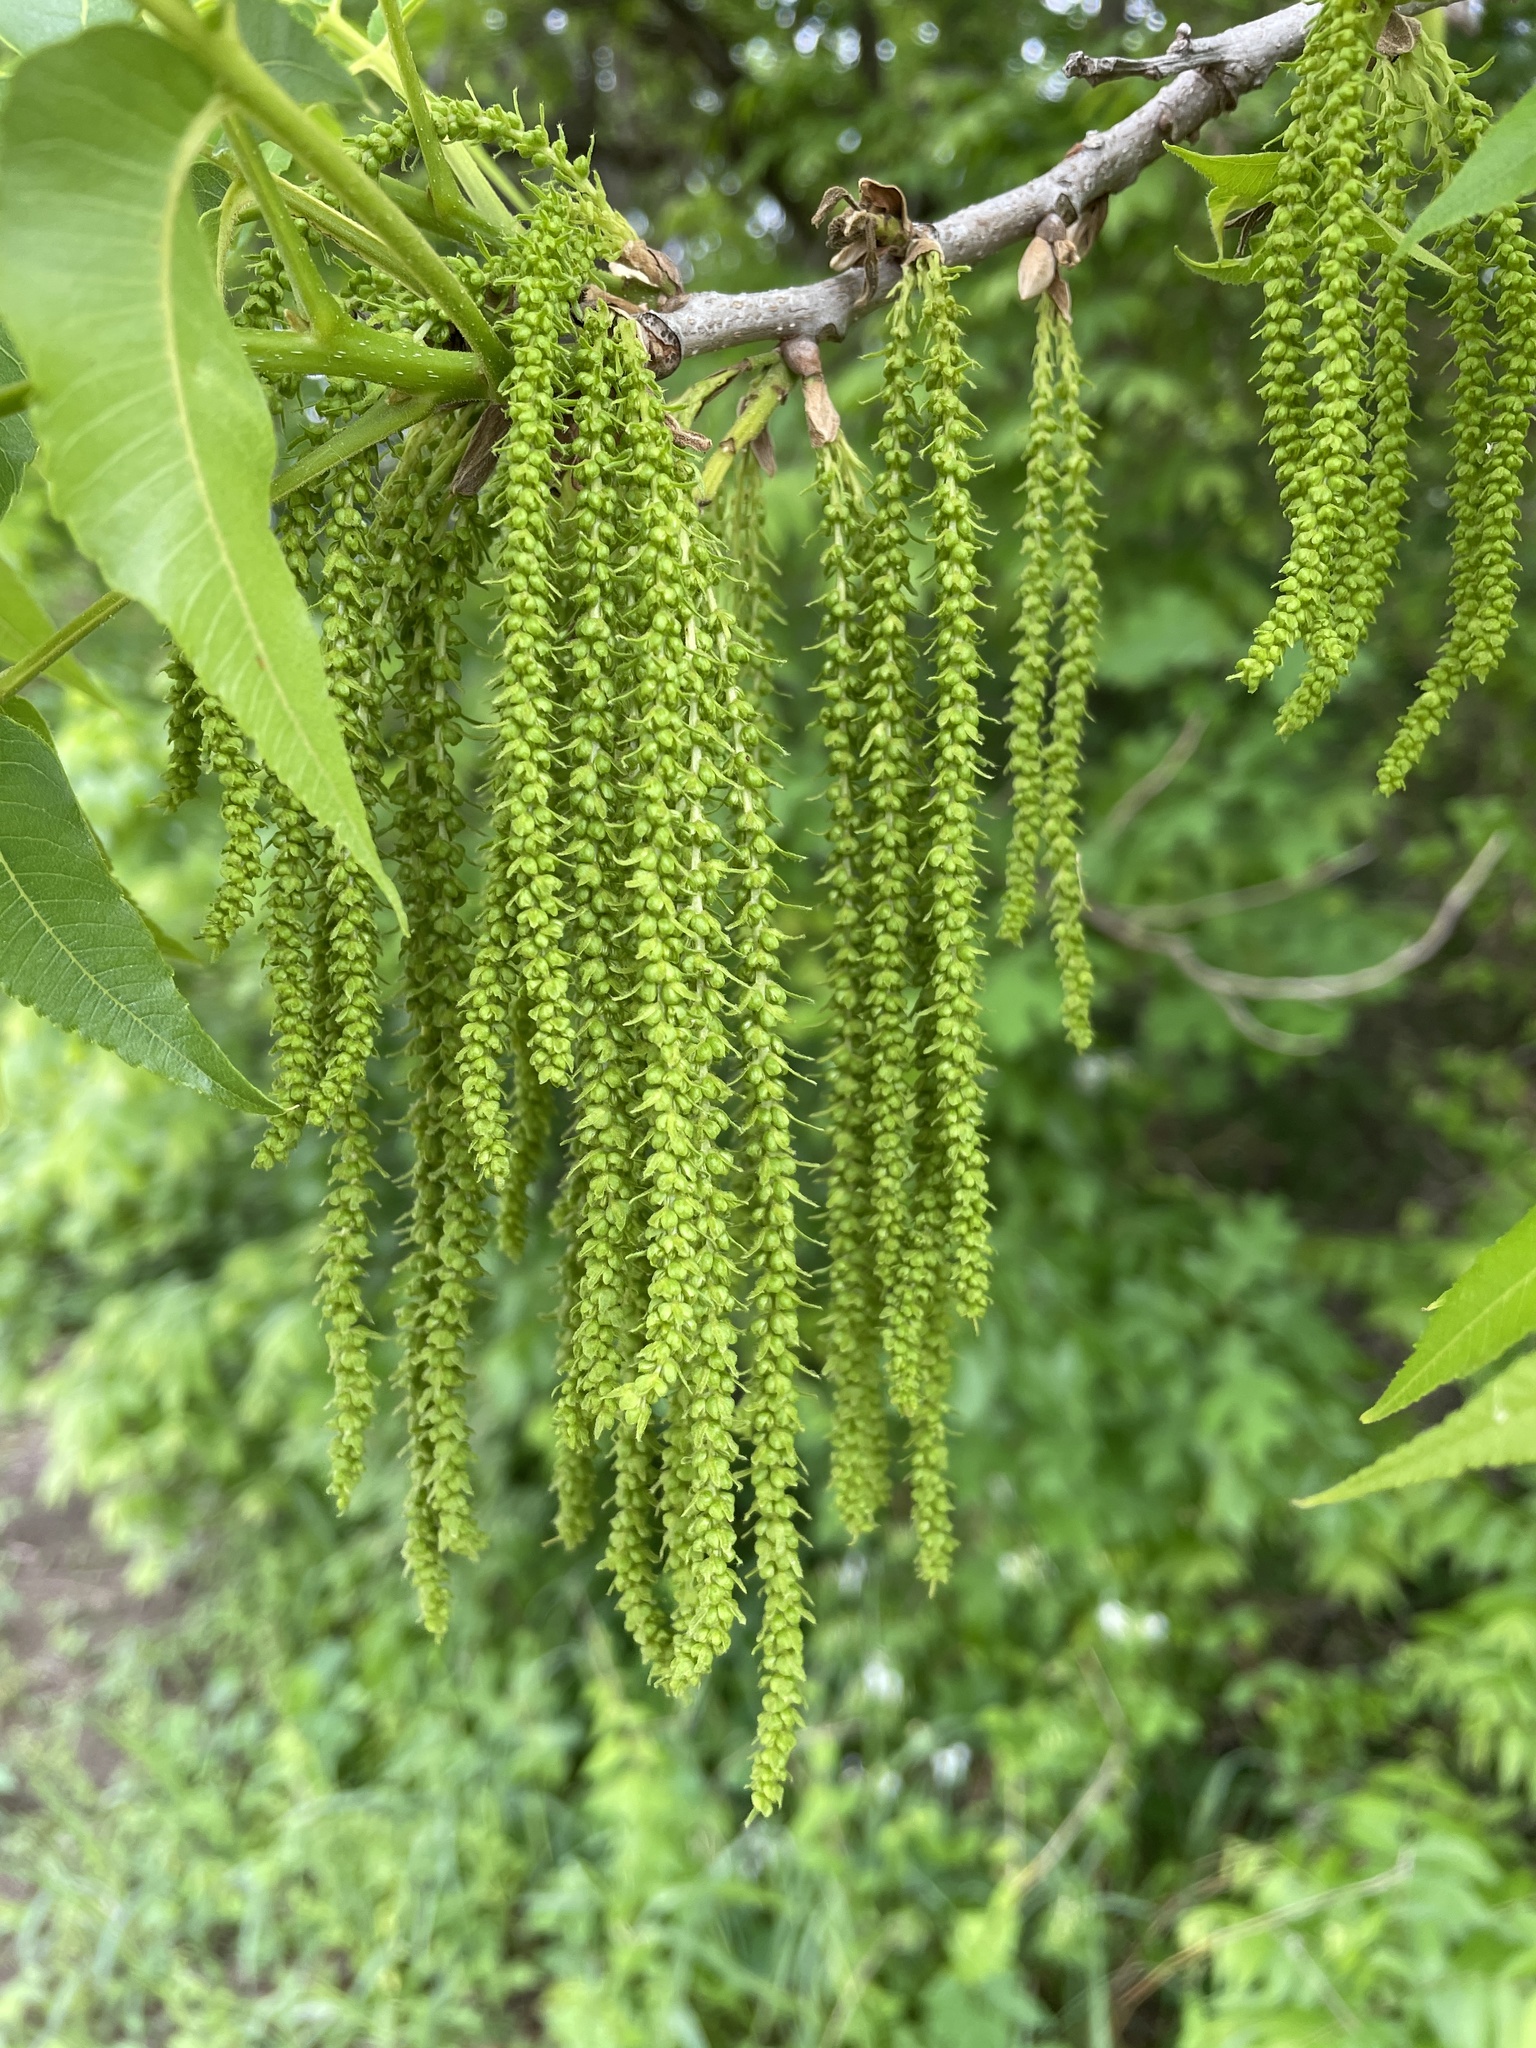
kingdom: Plantae
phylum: Tracheophyta
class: Magnoliopsida
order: Fagales
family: Juglandaceae
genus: Carya
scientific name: Carya illinoinensis
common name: Pecan
